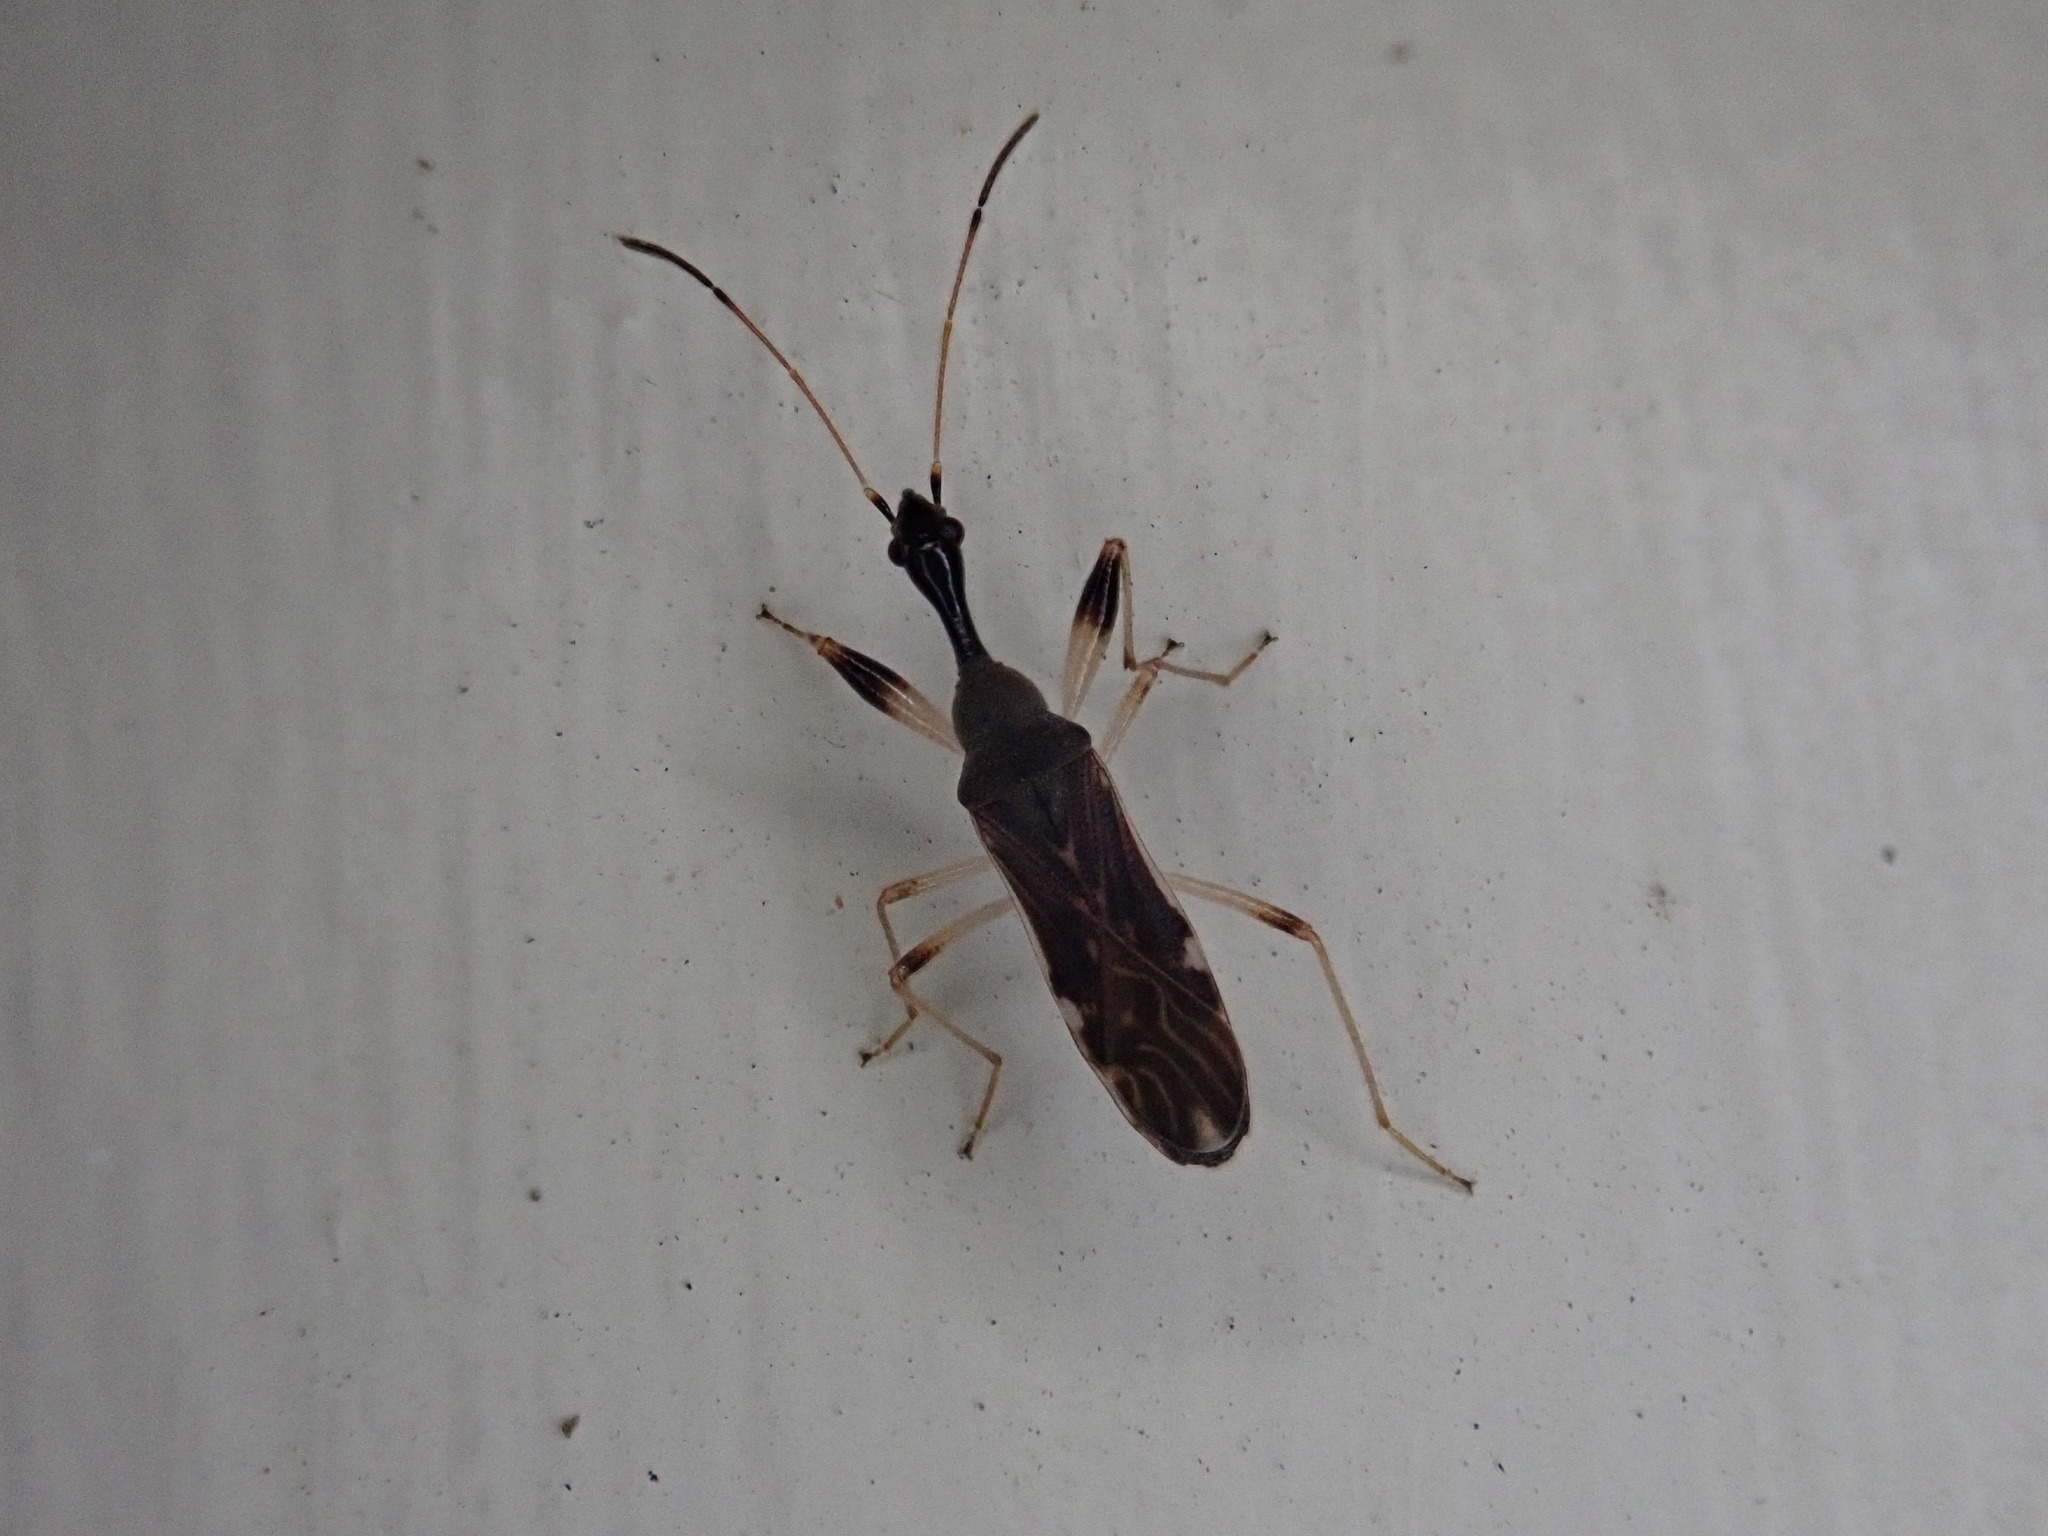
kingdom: Animalia
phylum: Arthropoda
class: Insecta
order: Hemiptera
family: Rhyparochromidae
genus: Myodocha
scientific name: Myodocha serripes
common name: Long-necked seed bug
